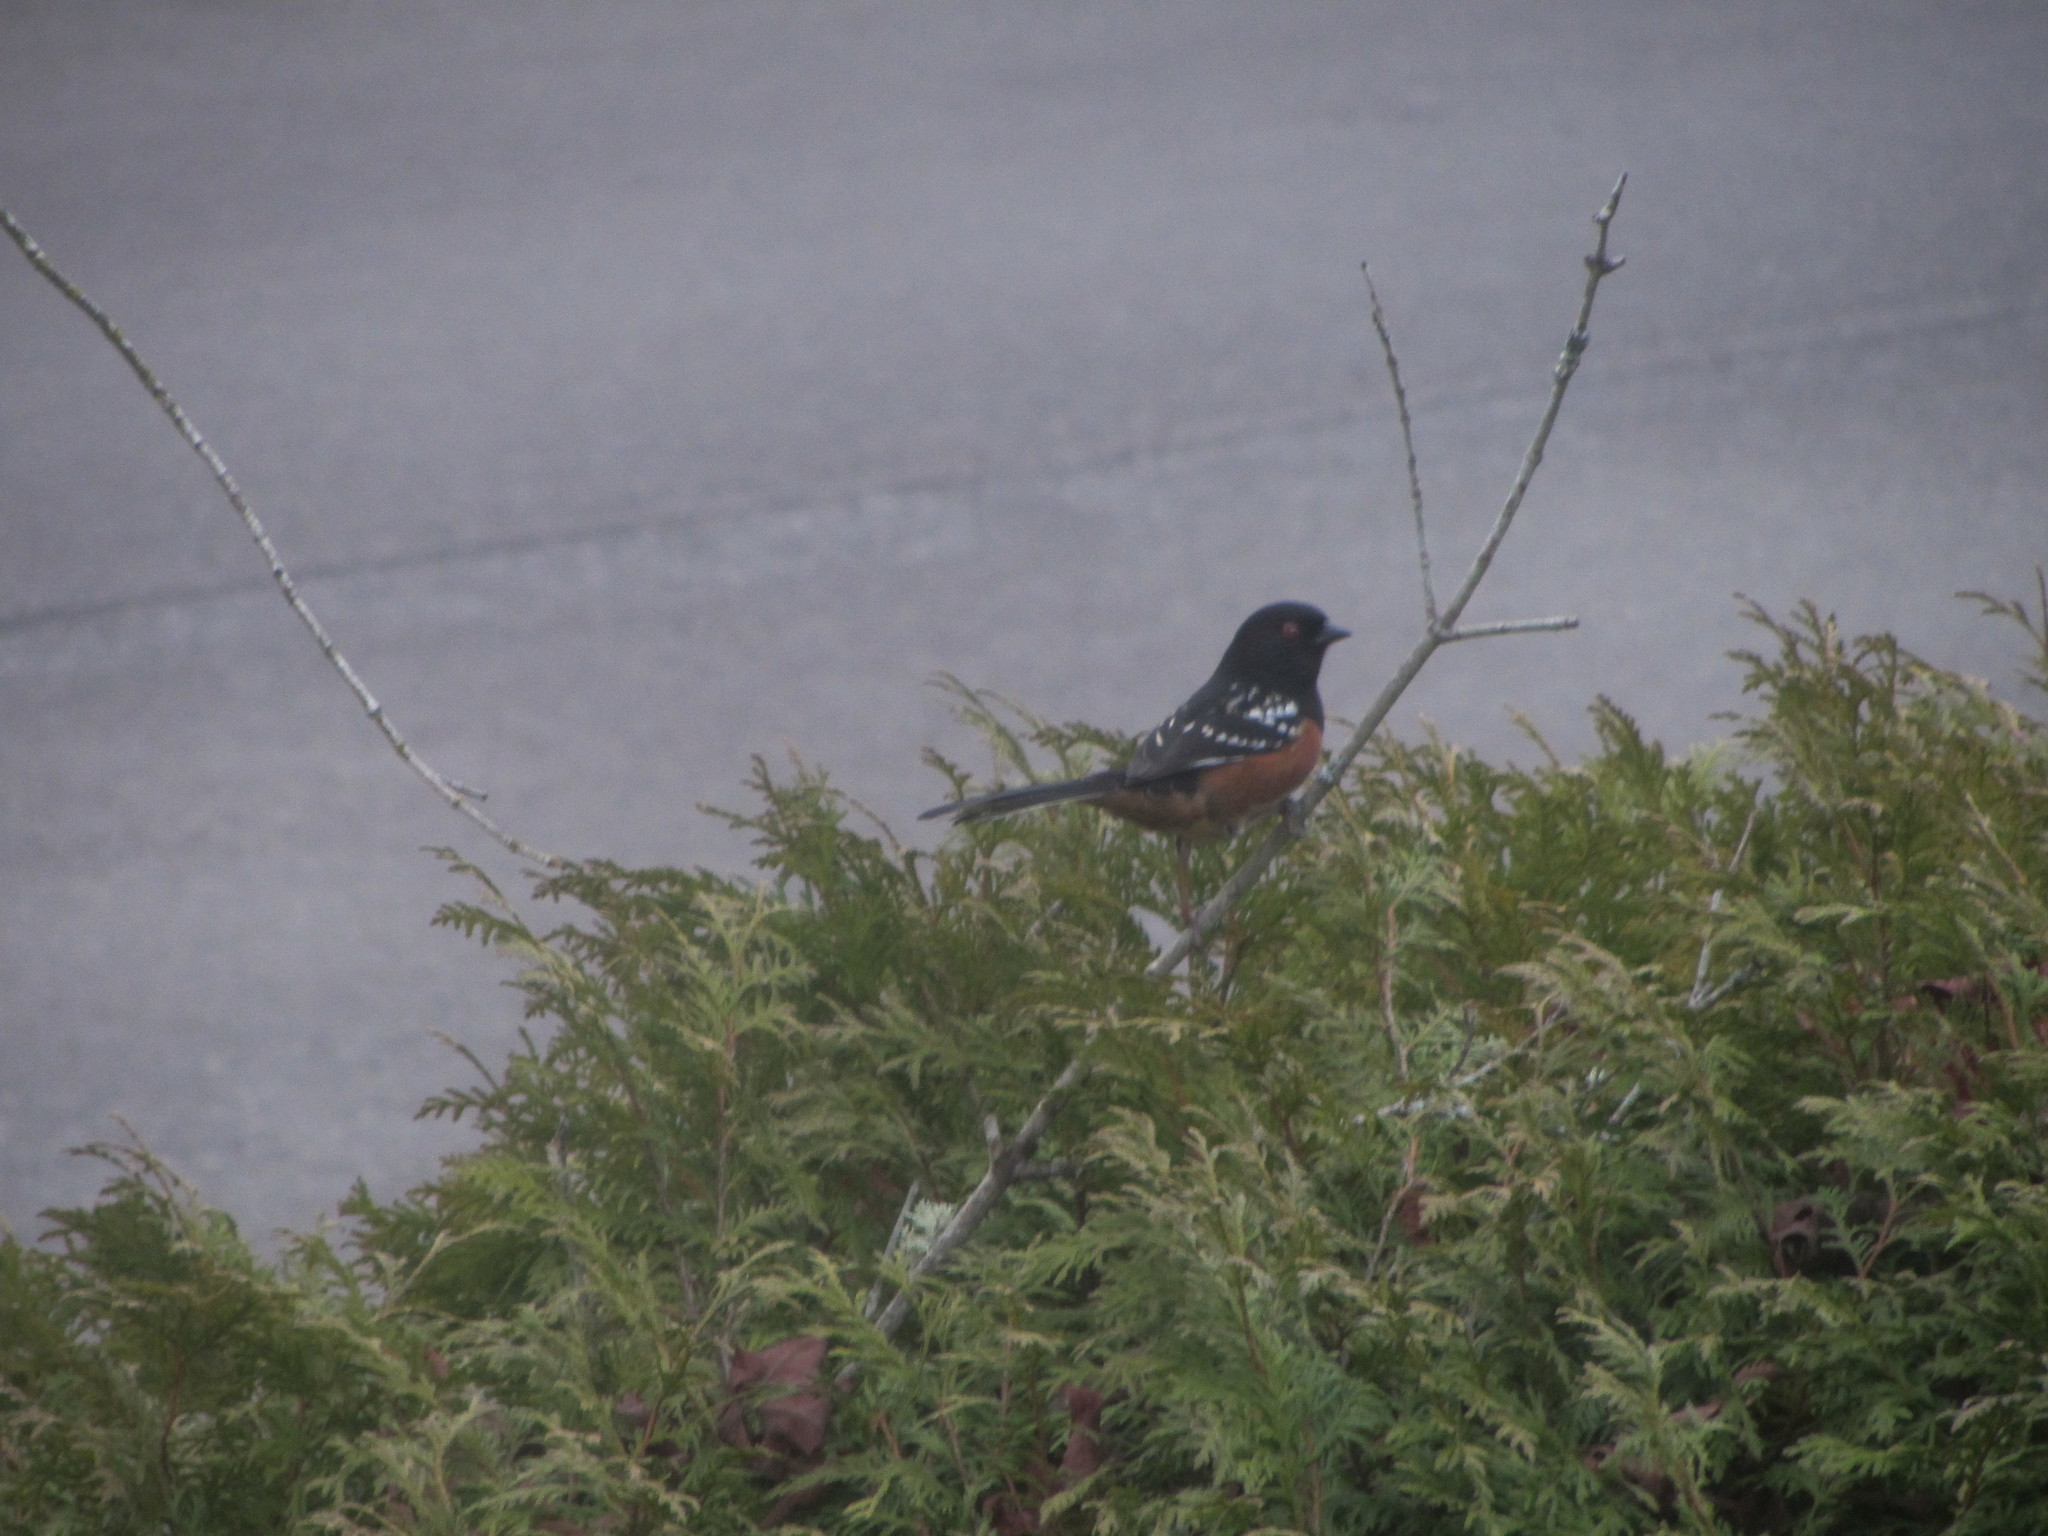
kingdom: Animalia
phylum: Chordata
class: Aves
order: Passeriformes
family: Passerellidae
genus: Pipilo
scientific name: Pipilo maculatus
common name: Spotted towhee
